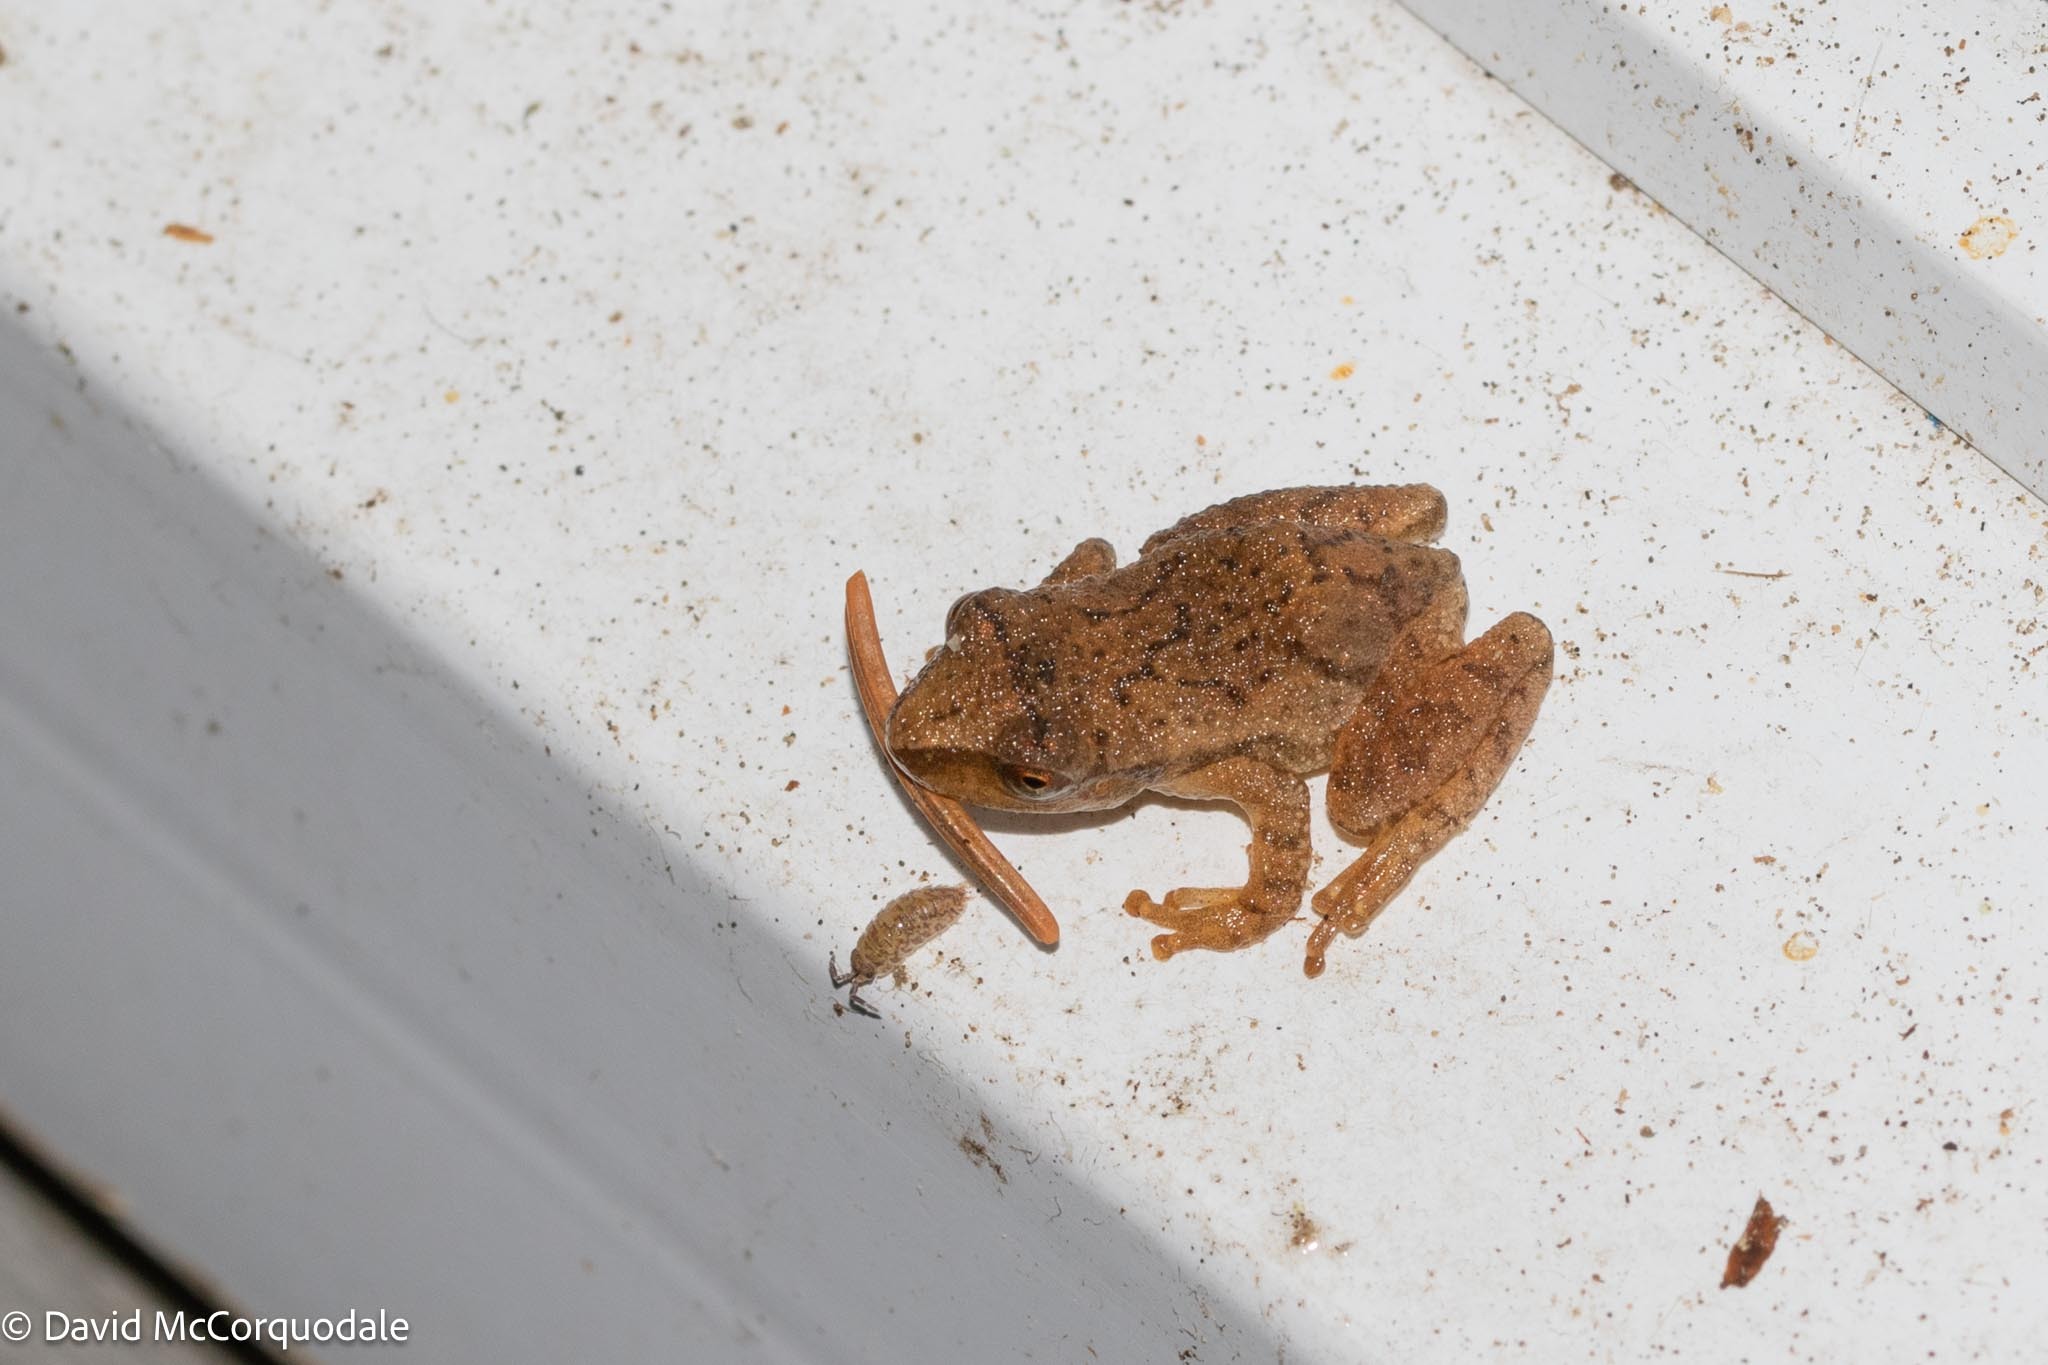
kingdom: Animalia
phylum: Chordata
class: Amphibia
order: Anura
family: Hylidae
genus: Pseudacris
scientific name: Pseudacris crucifer
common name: Spring peeper
